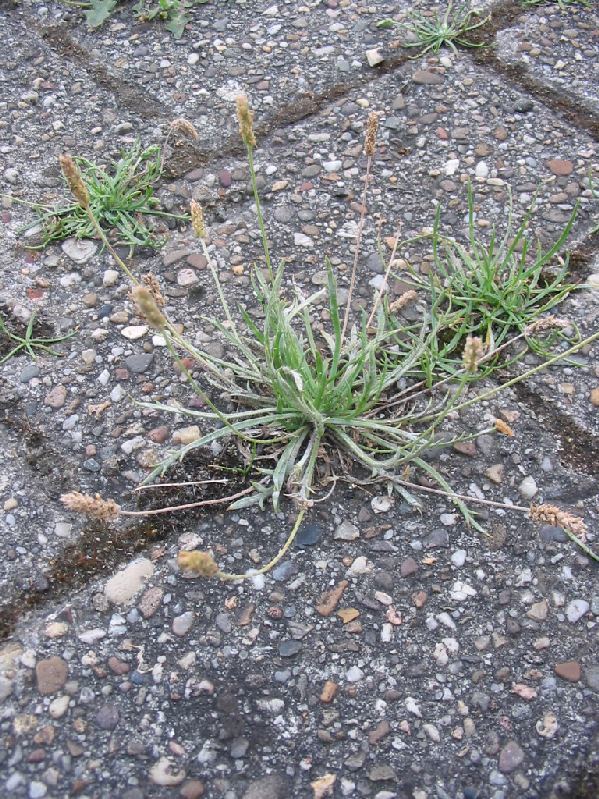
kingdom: Plantae
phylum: Tracheophyta
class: Magnoliopsida
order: Lamiales
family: Plantaginaceae
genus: Plantago
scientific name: Plantago coronopus
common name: Buck's-horn plantain
